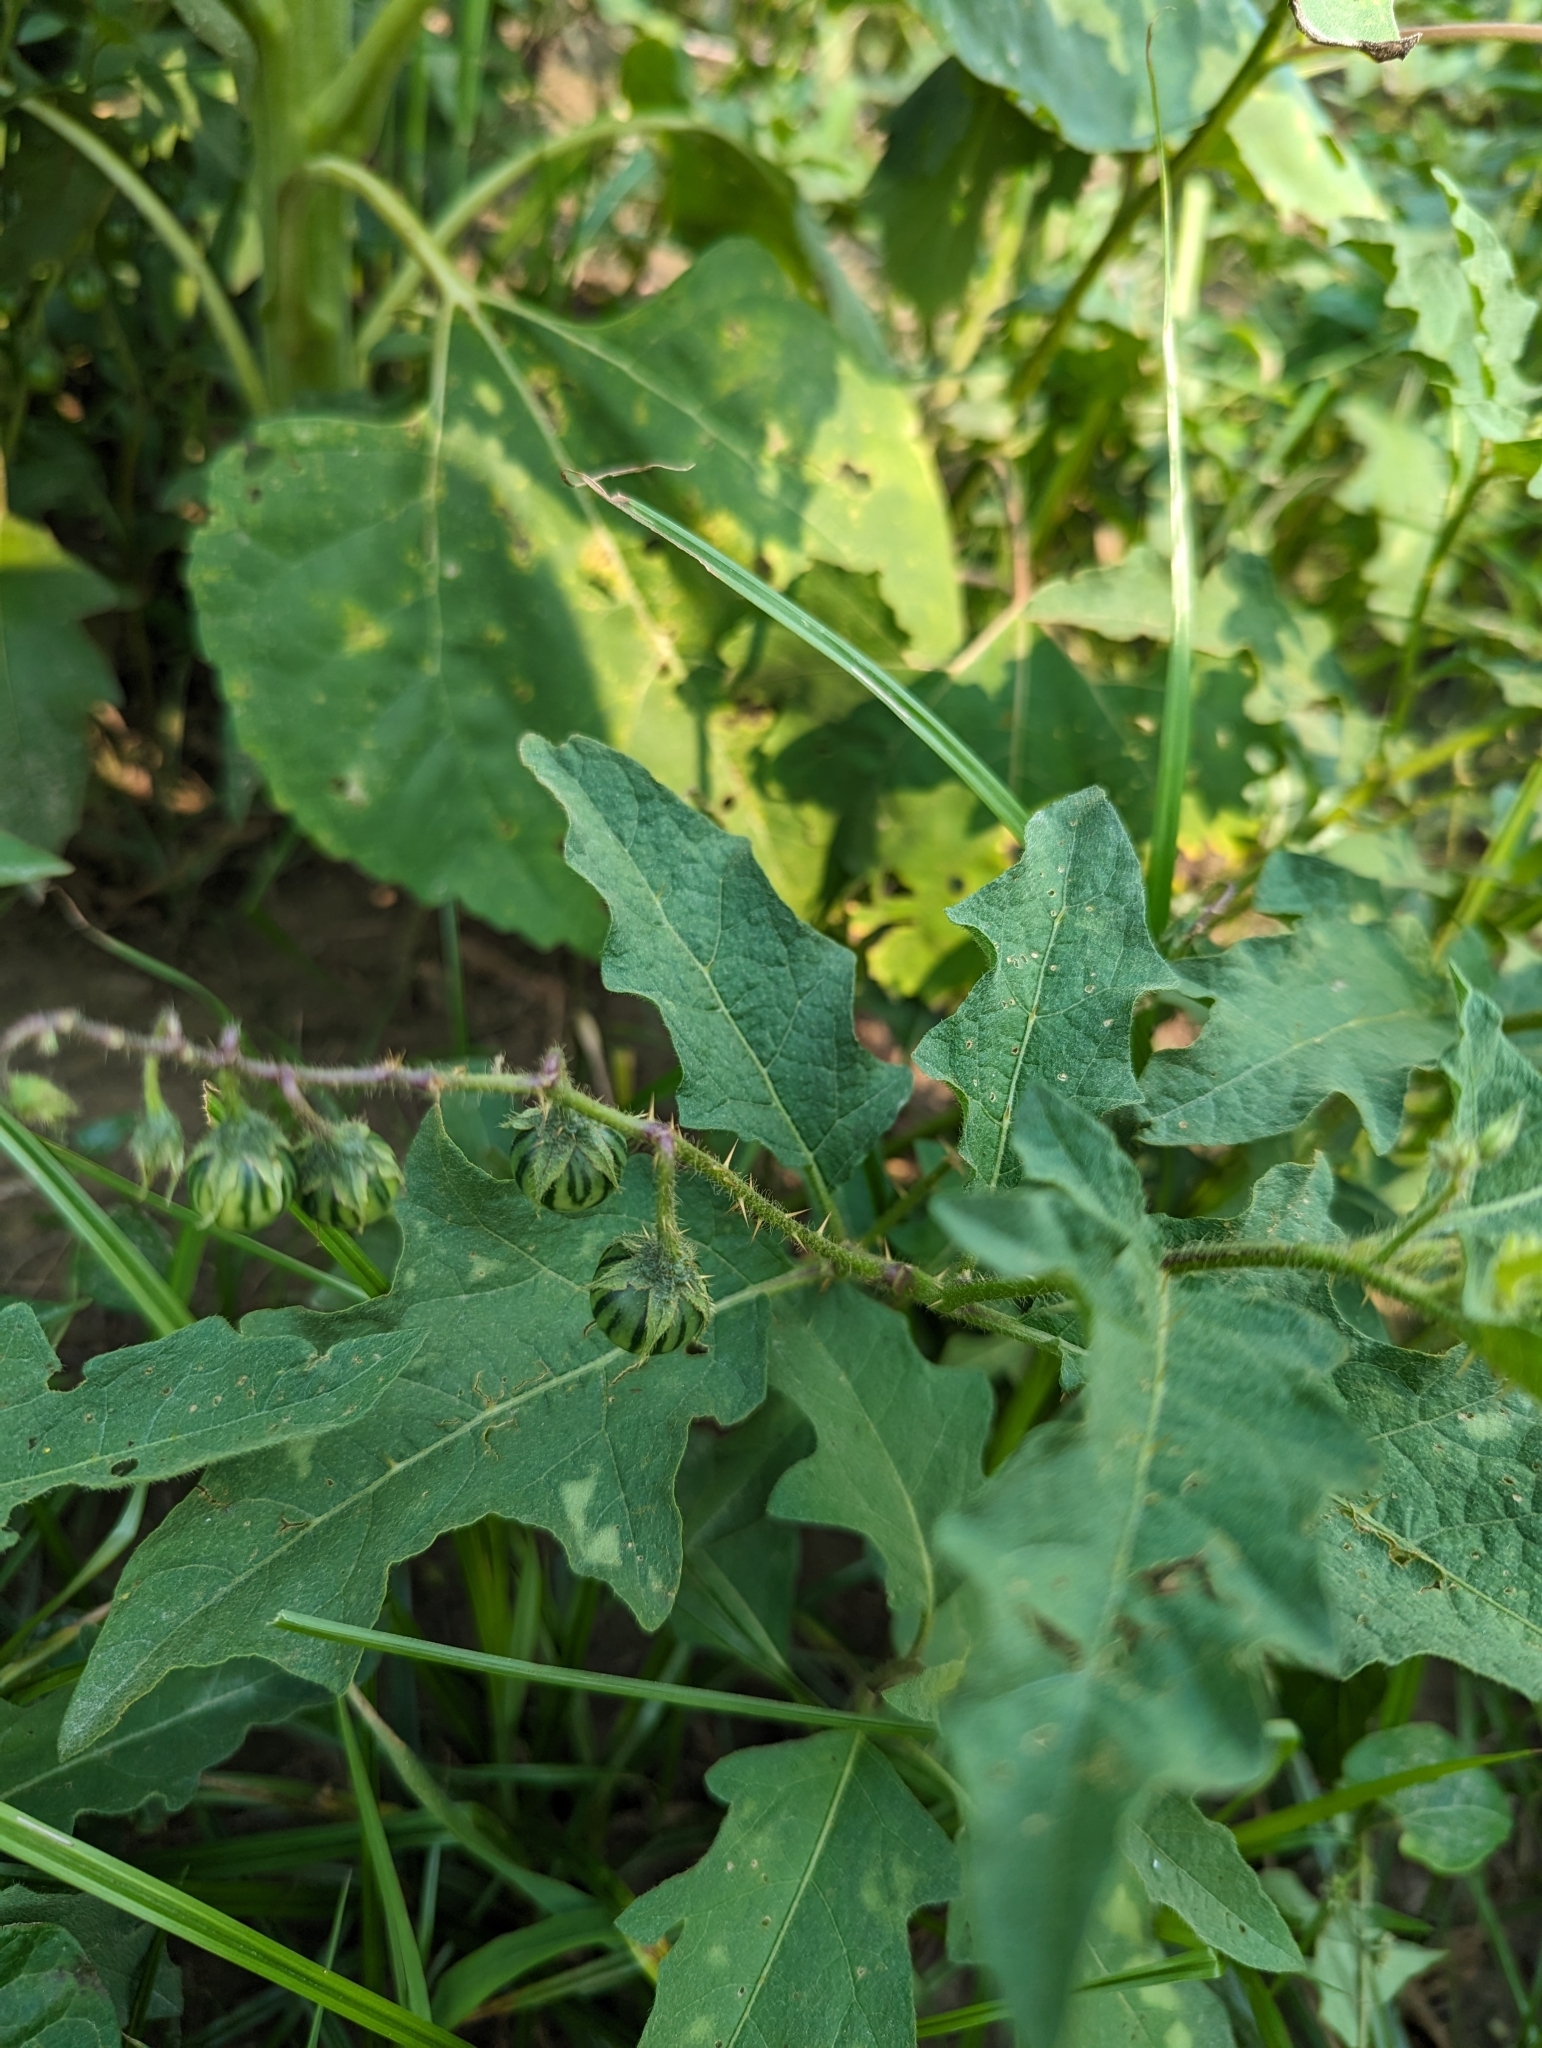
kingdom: Plantae
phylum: Tracheophyta
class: Magnoliopsida
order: Solanales
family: Solanaceae
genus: Solanum
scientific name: Solanum carolinense
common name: Horse-nettle
